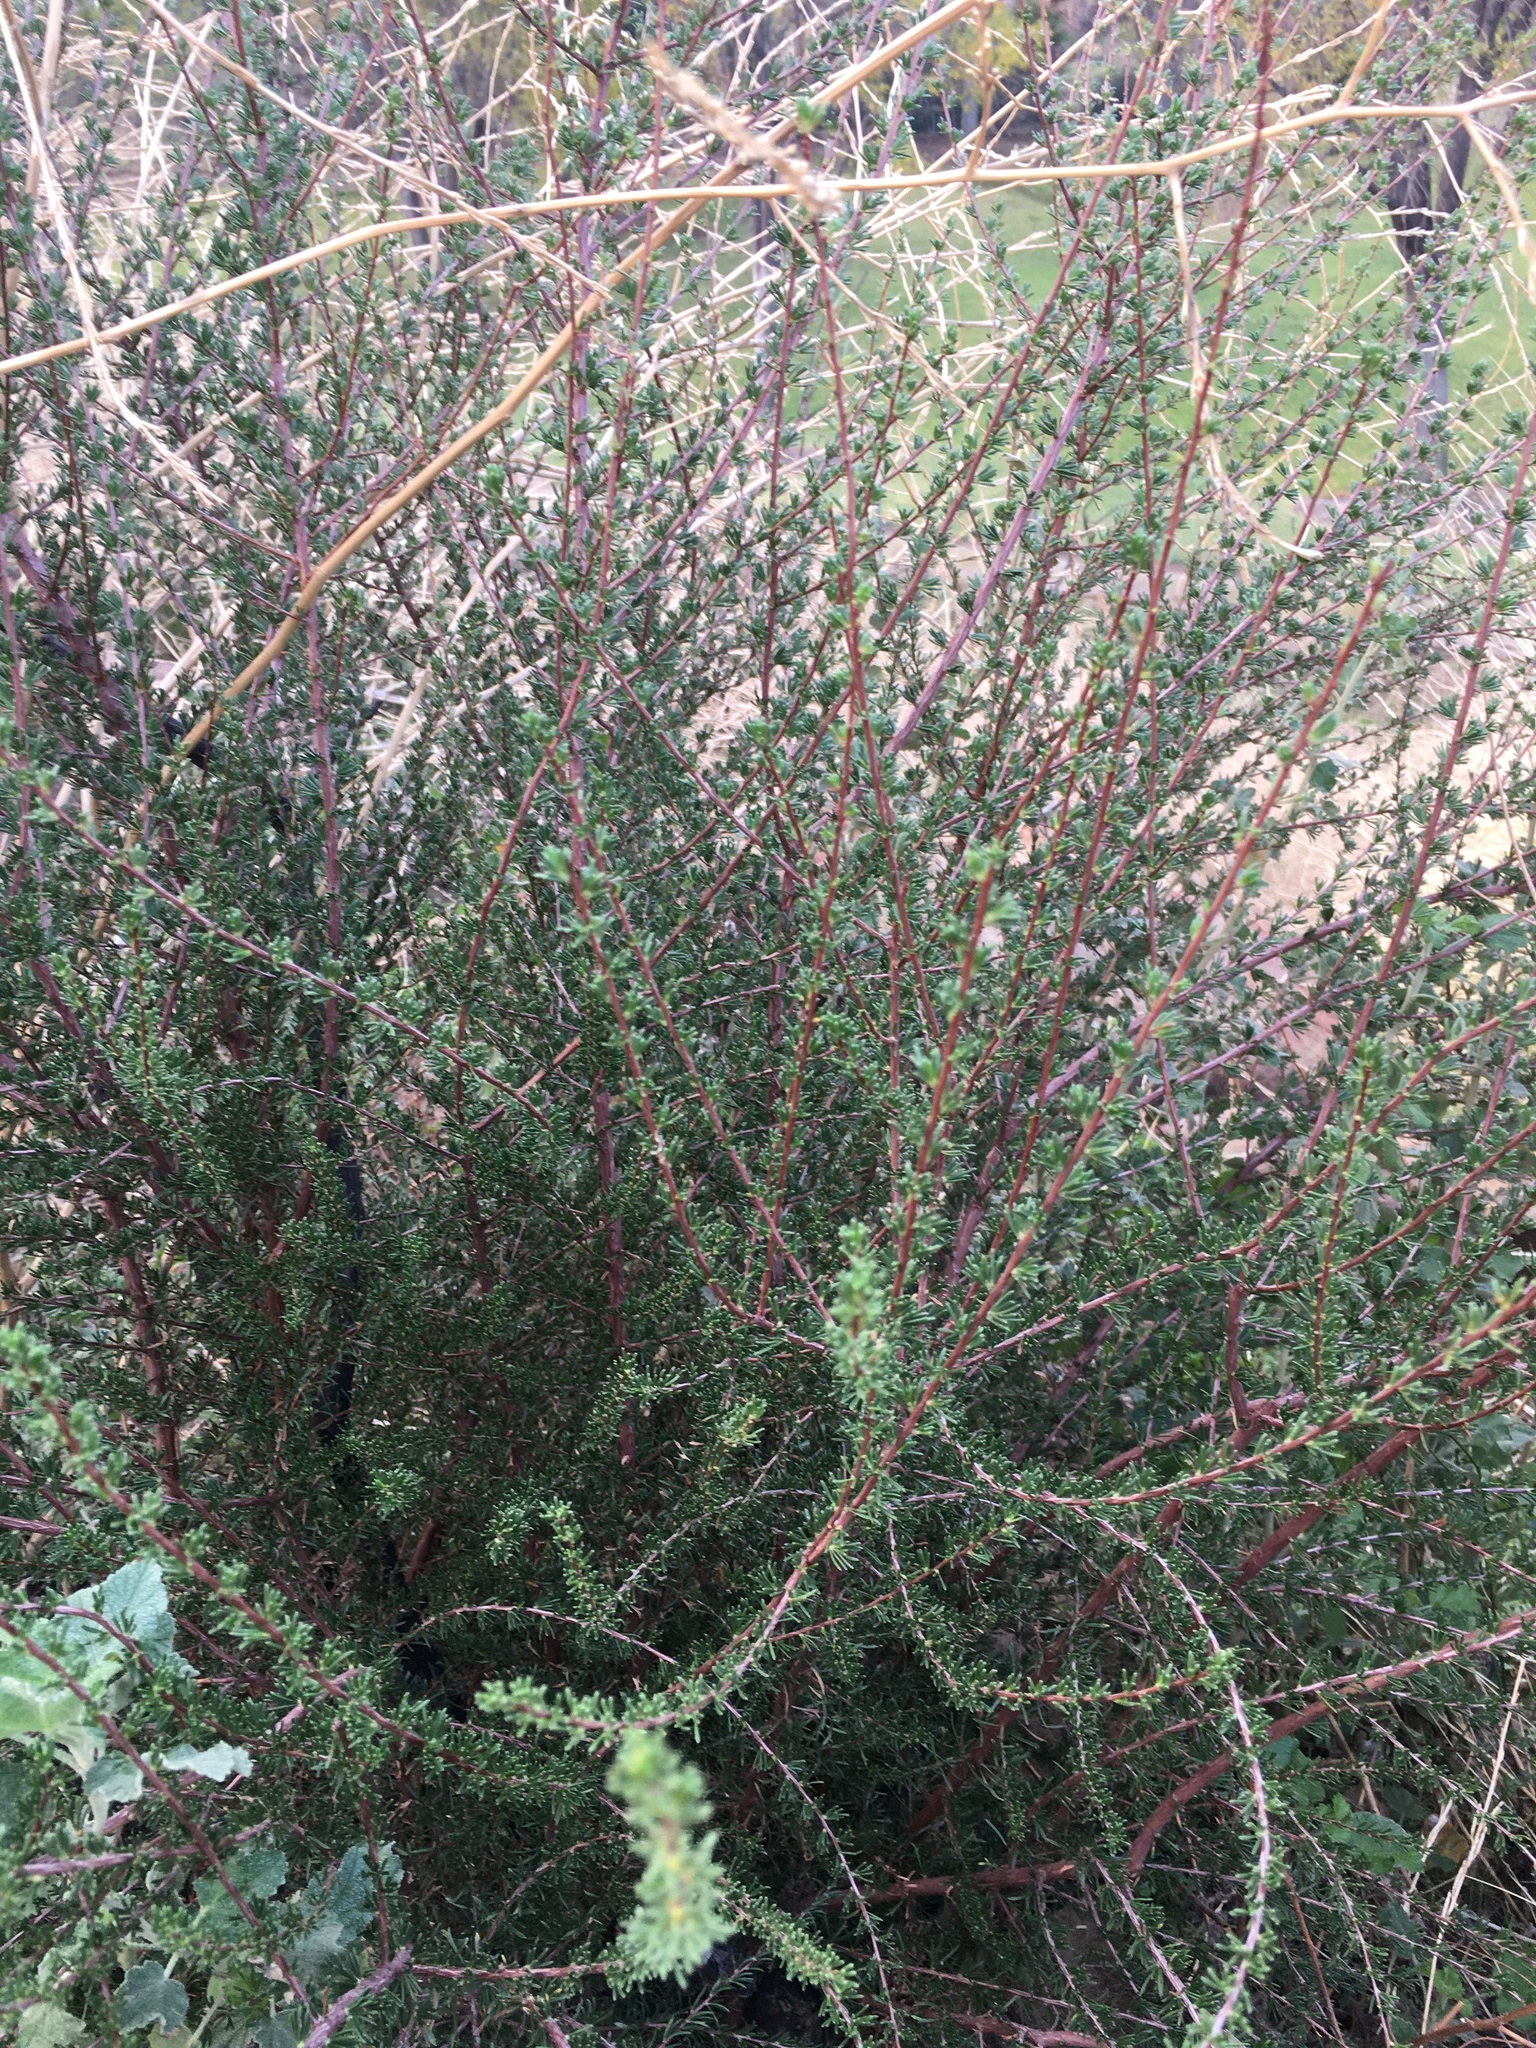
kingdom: Plantae
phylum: Tracheophyta
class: Magnoliopsida
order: Rosales
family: Rosaceae
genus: Adenostoma
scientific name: Adenostoma fasciculatum
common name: Chamise
